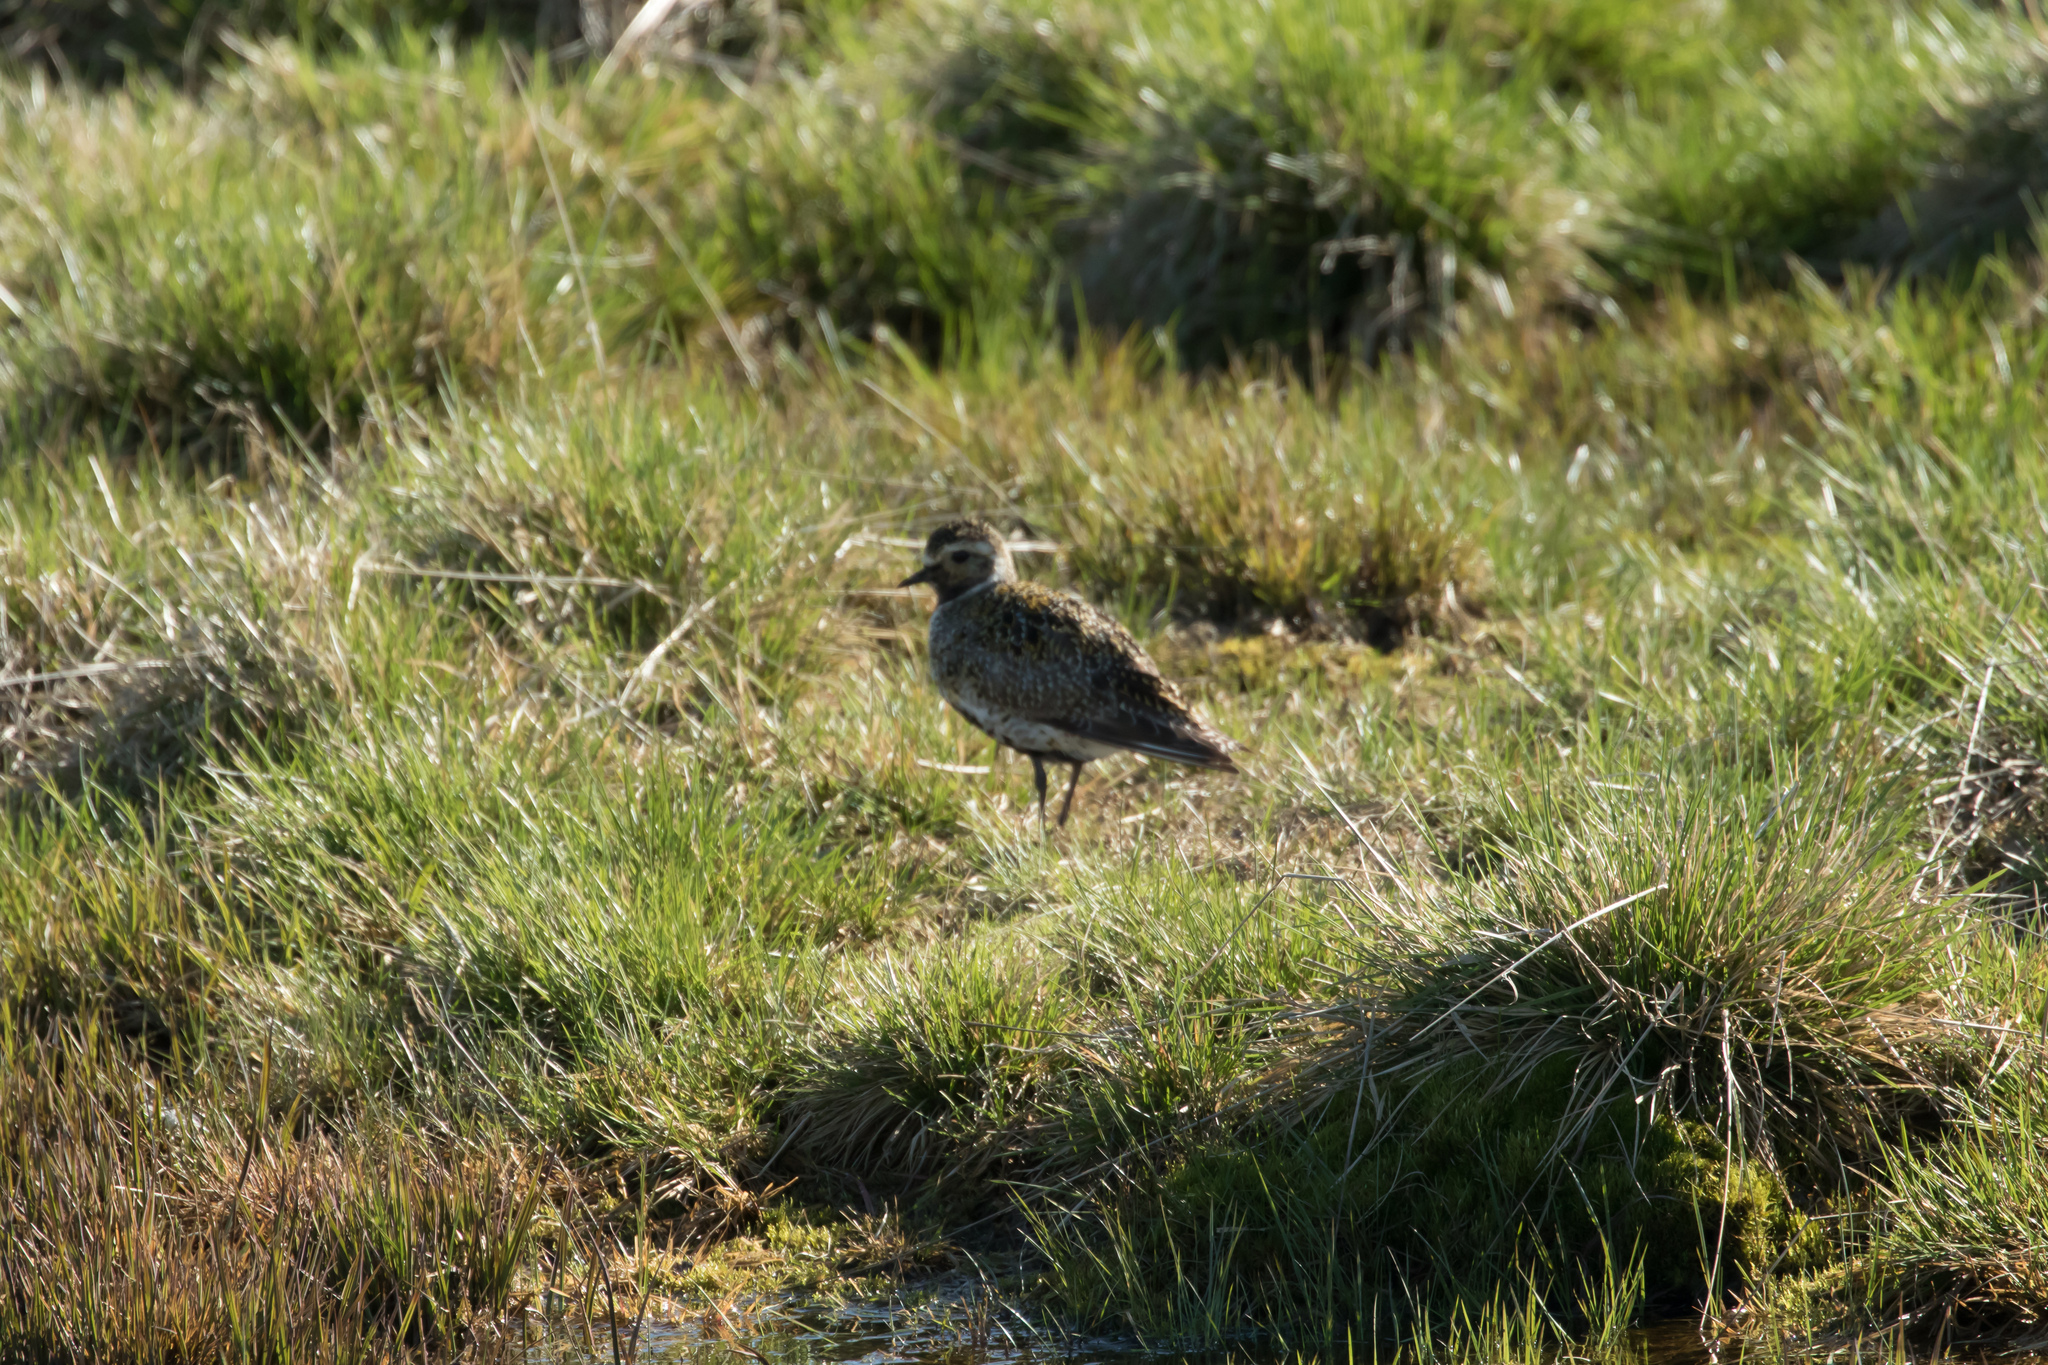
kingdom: Animalia
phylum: Chordata
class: Aves
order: Charadriiformes
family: Charadriidae
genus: Pluvialis
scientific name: Pluvialis apricaria
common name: European golden plover
